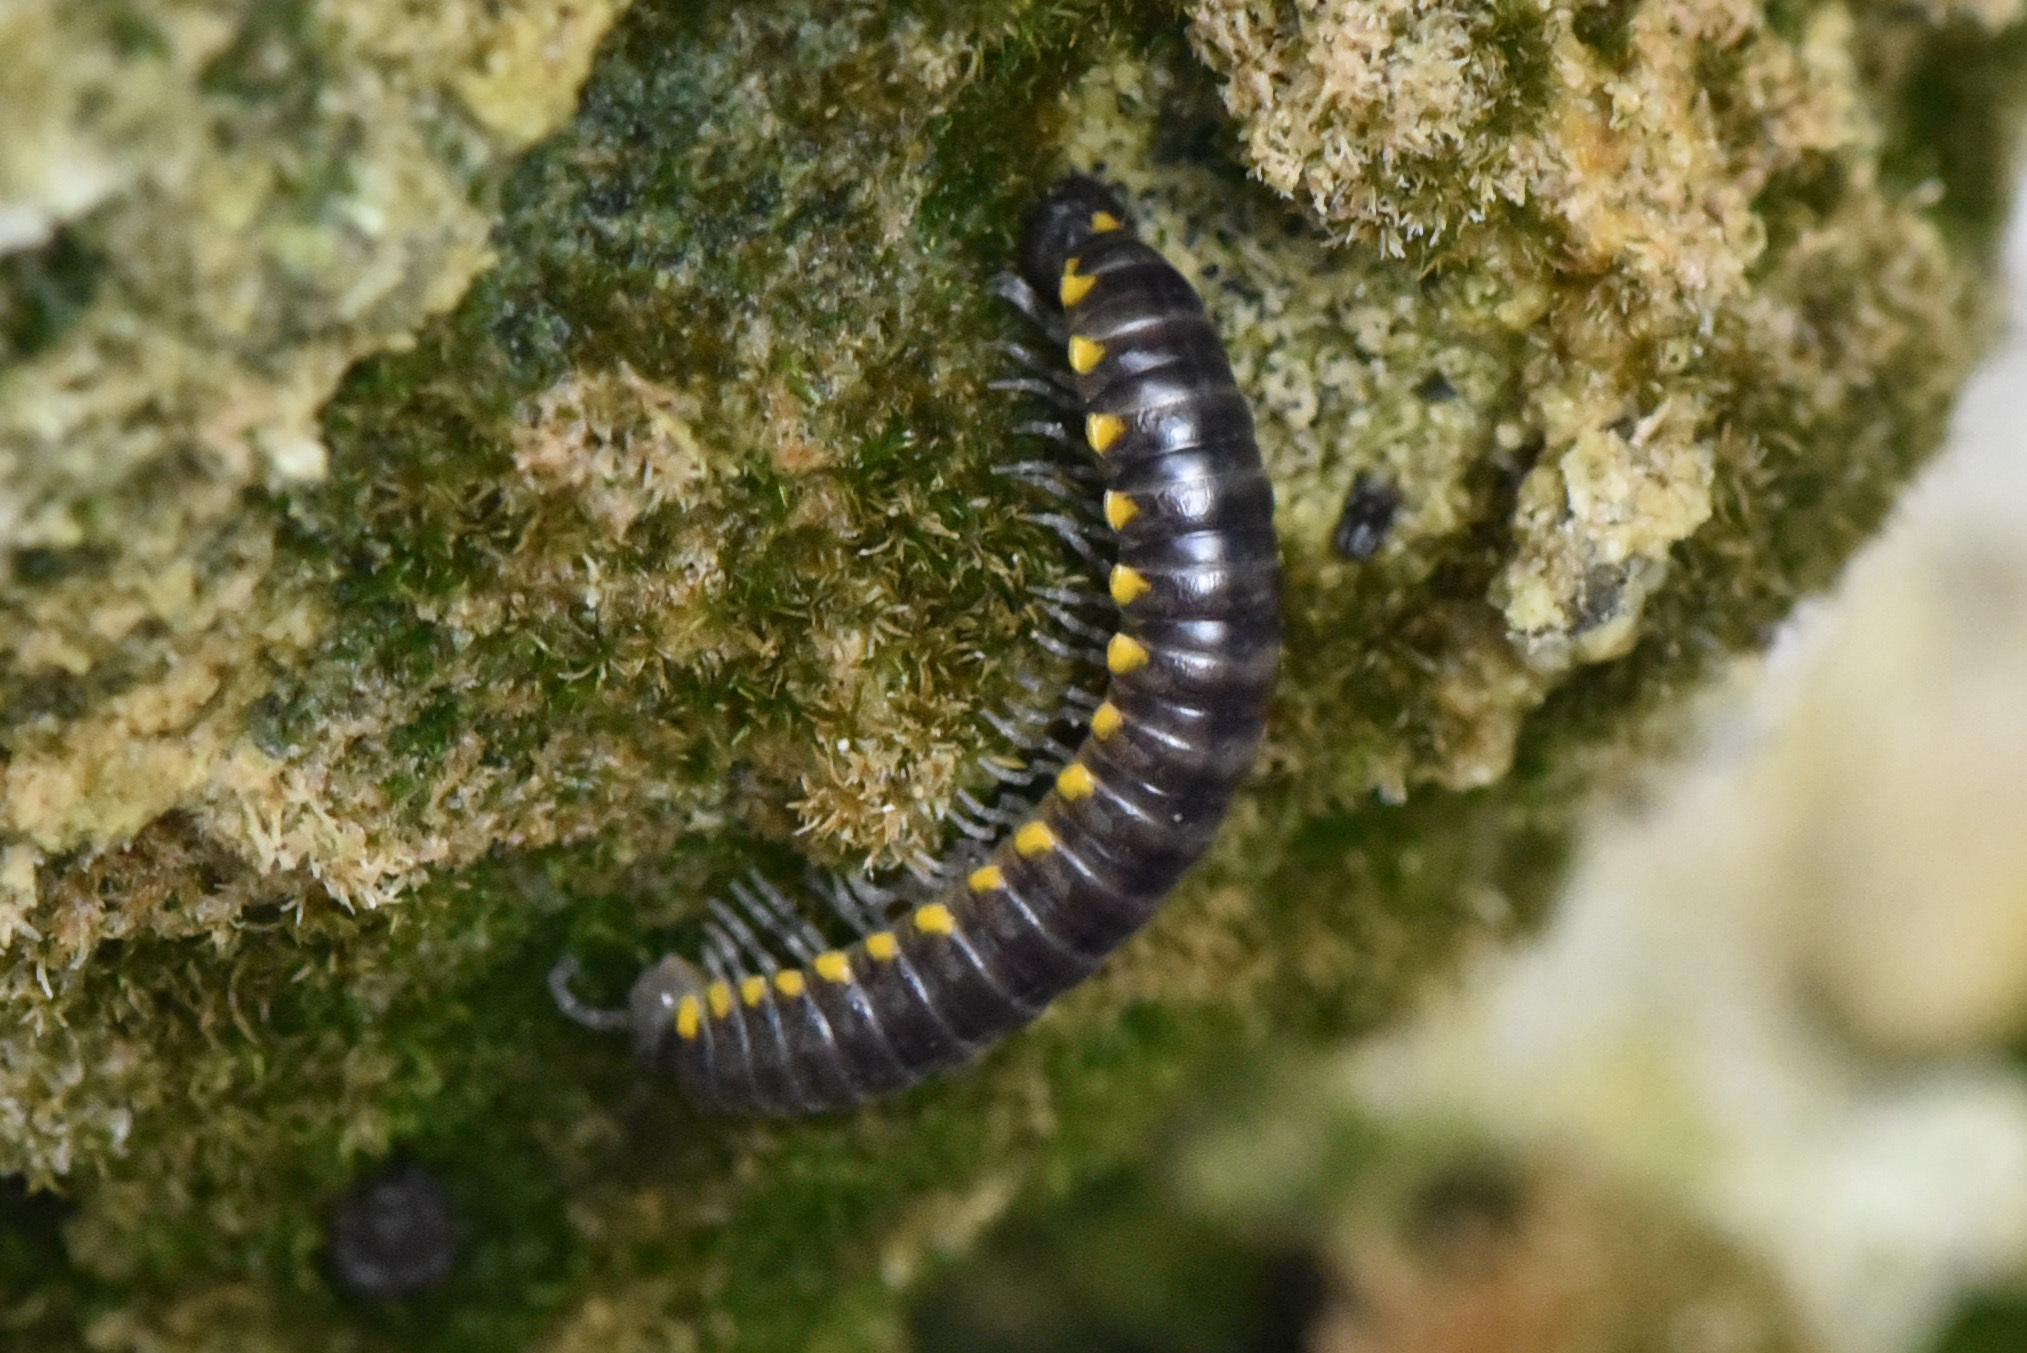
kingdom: Animalia
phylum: Arthropoda
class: Diplopoda
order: Polydesmida
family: Xystodesmidae
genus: Harpaphe
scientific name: Harpaphe haydeniana
